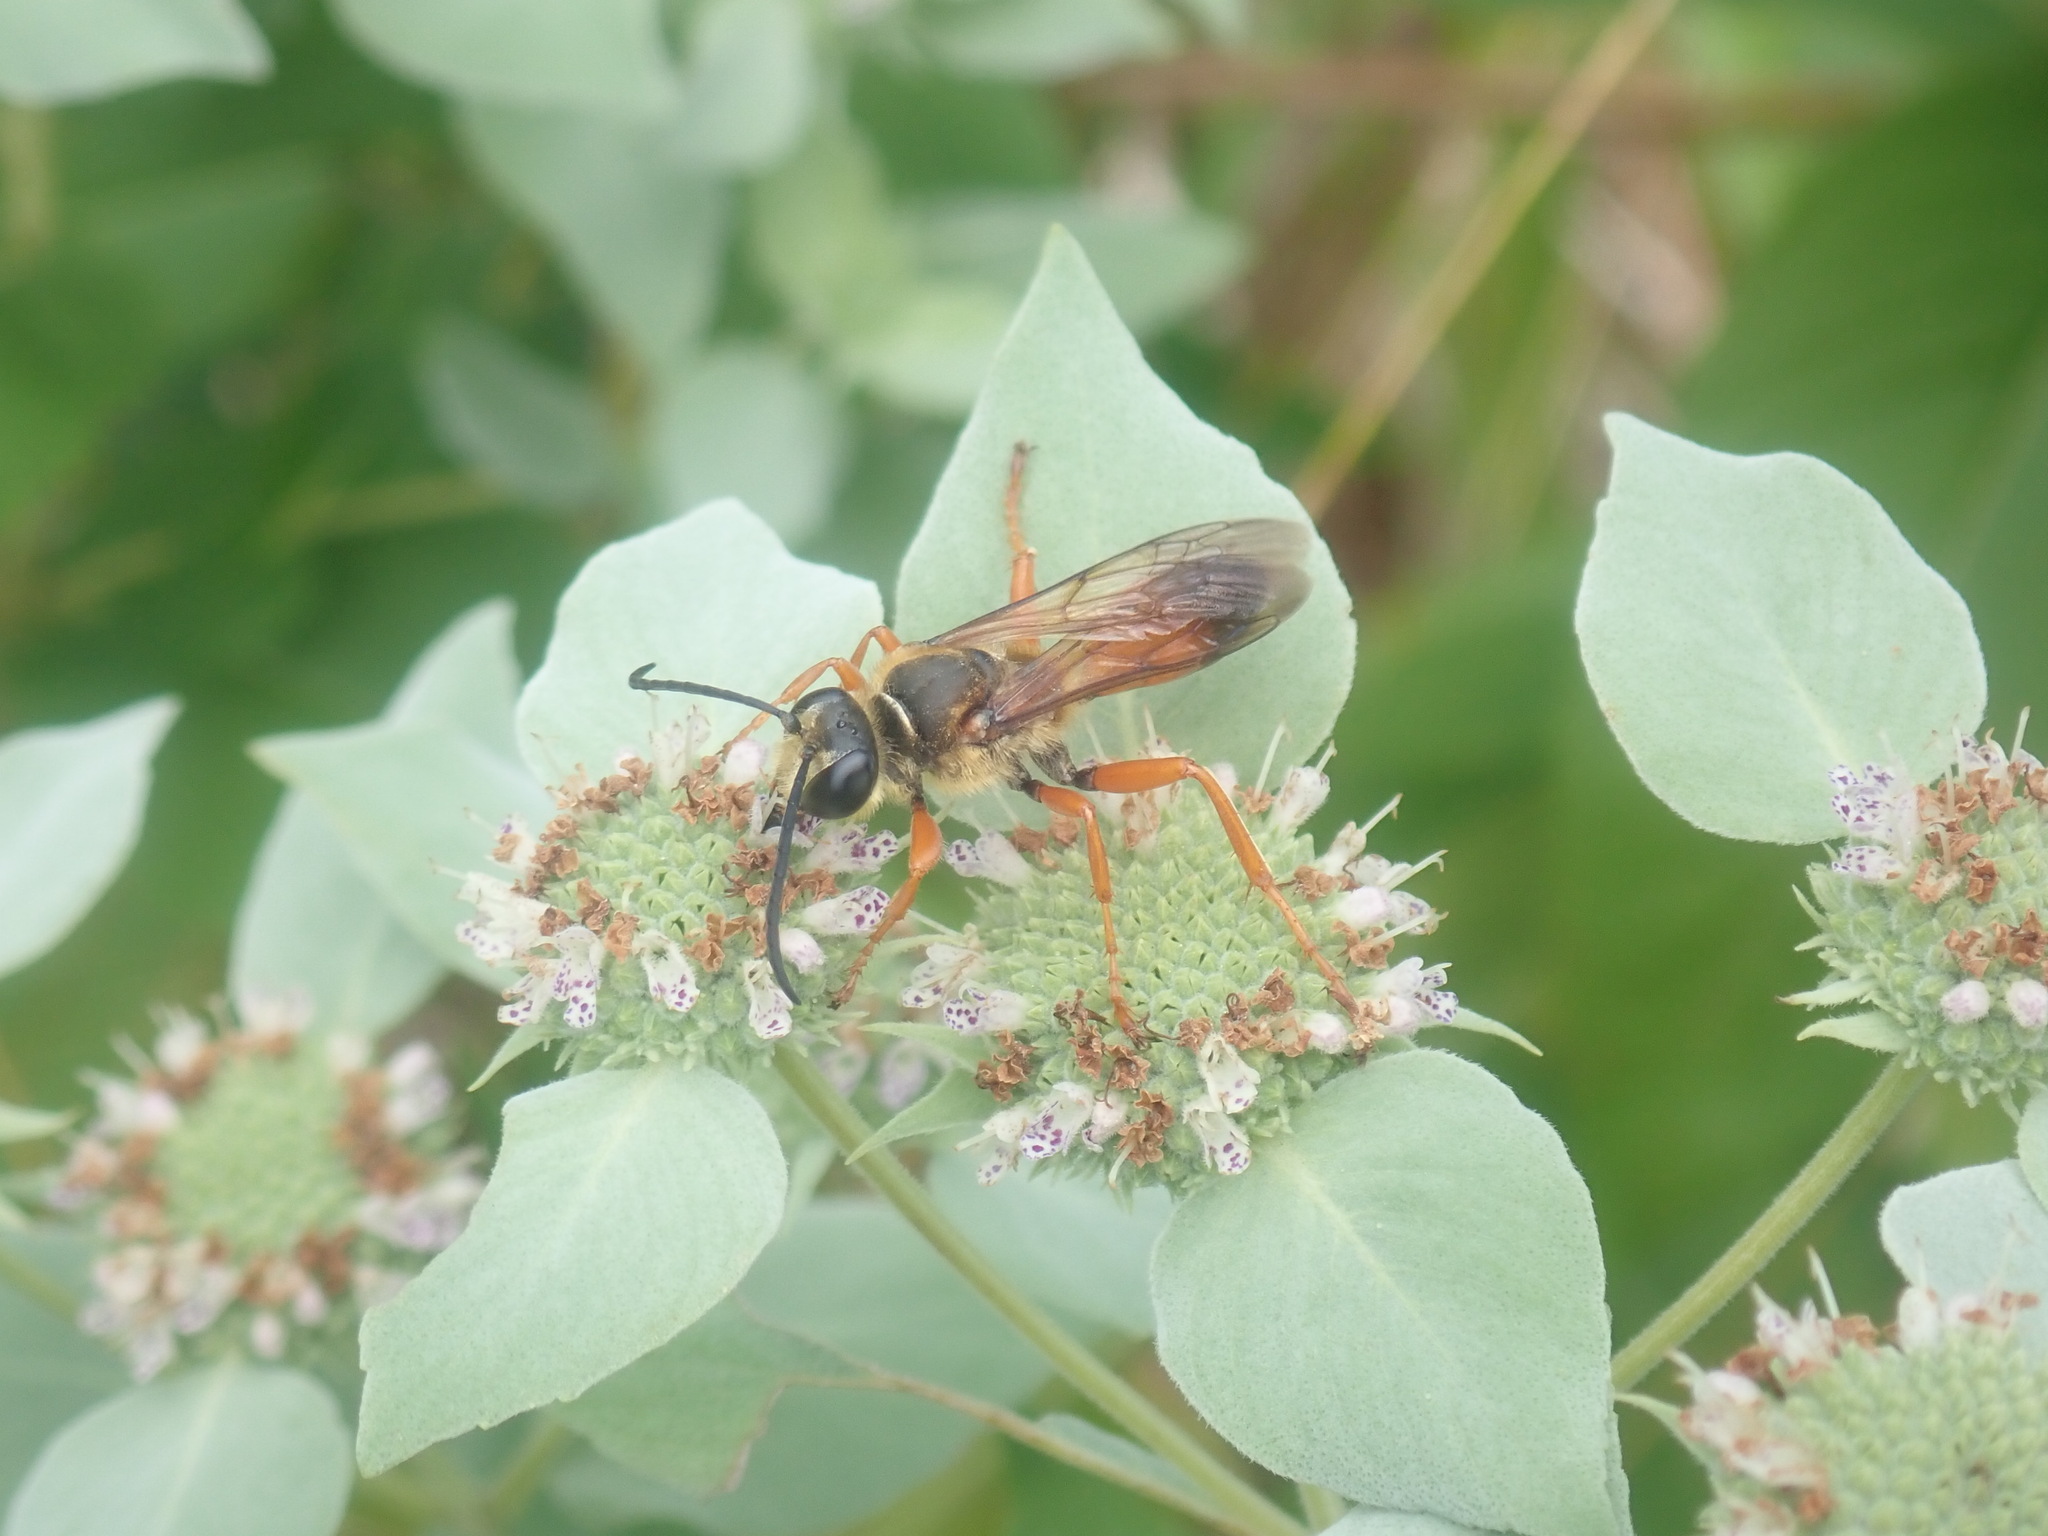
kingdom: Animalia
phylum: Arthropoda
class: Insecta
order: Hymenoptera
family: Sphecidae
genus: Sphex
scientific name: Sphex ichneumoneus
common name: Great golden digger wasp
